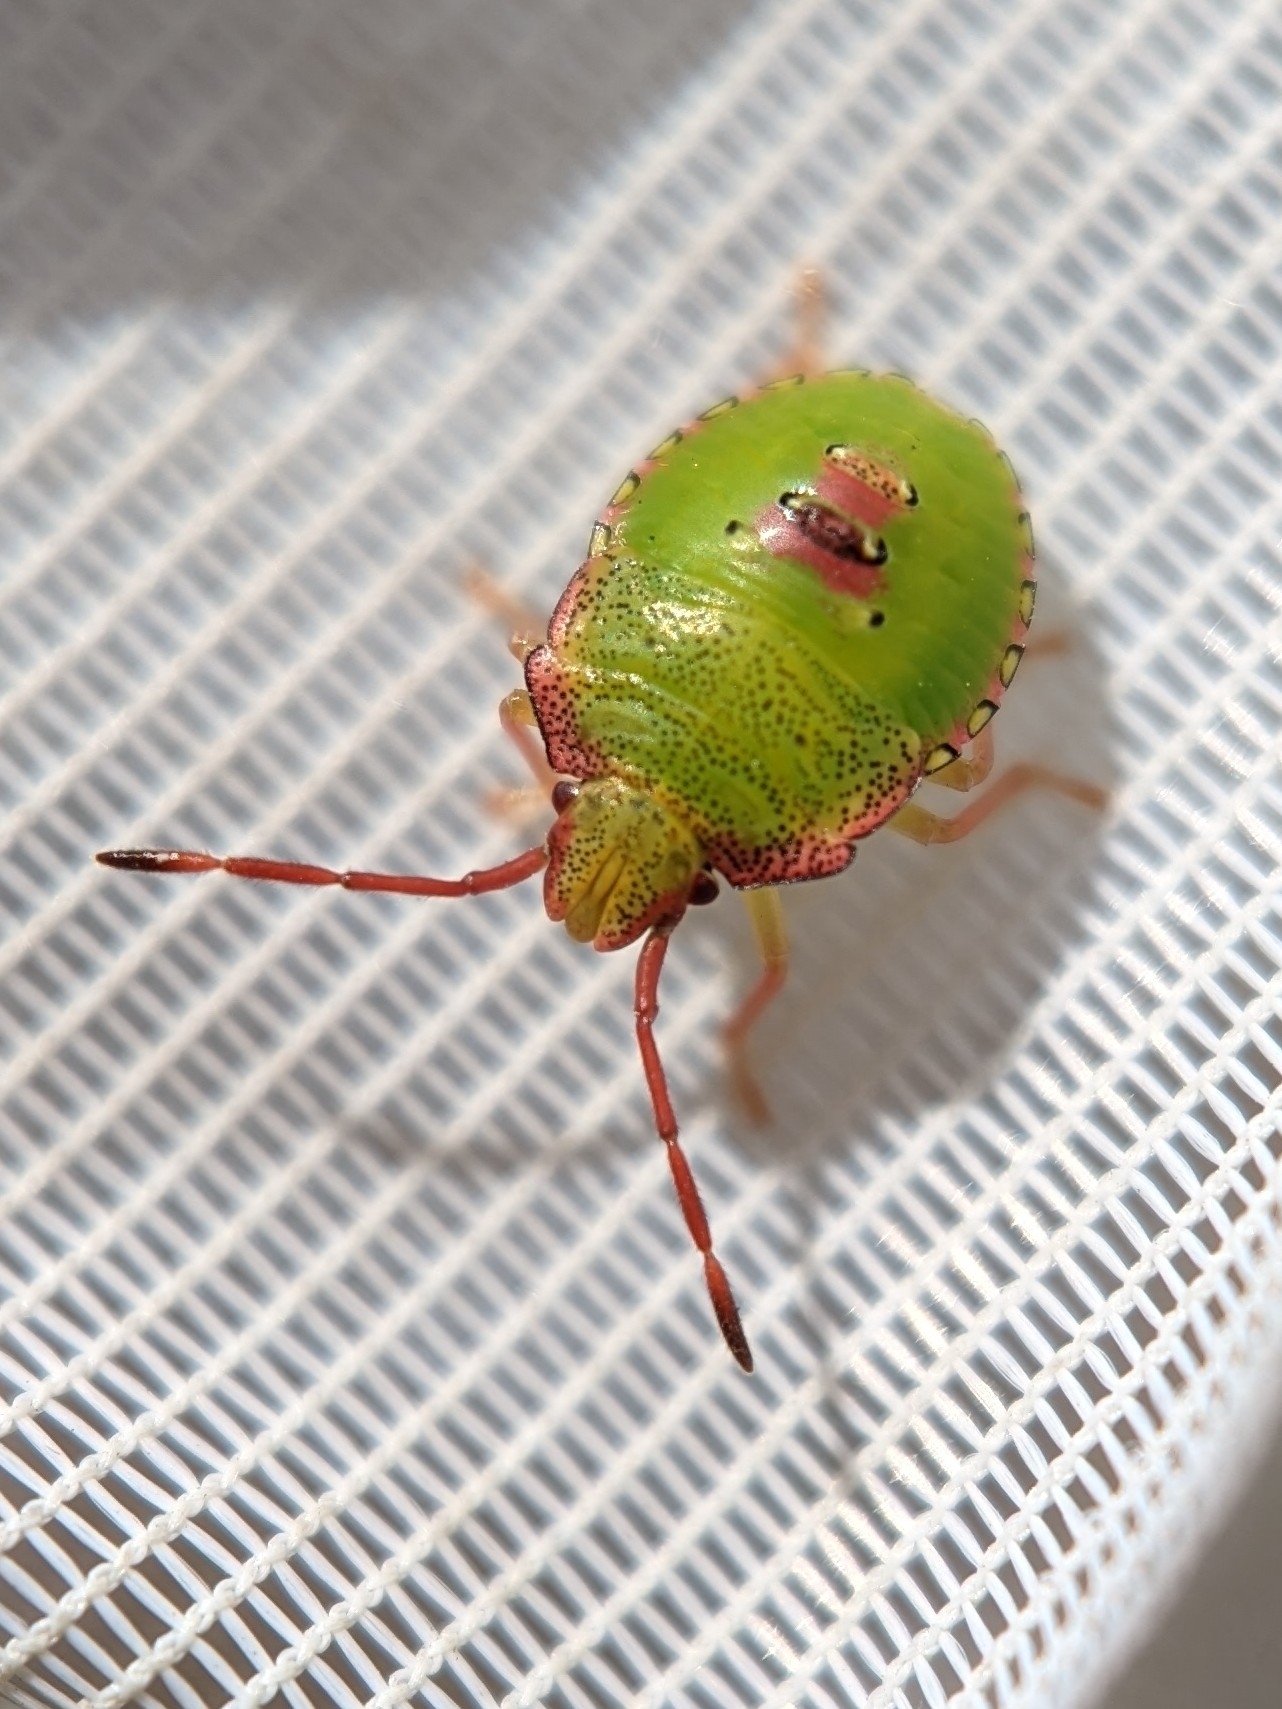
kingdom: Animalia
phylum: Arthropoda
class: Insecta
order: Hemiptera
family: Acanthosomatidae
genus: Acanthosoma
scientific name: Acanthosoma haemorrhoidale
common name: Hawthorn shieldbug
